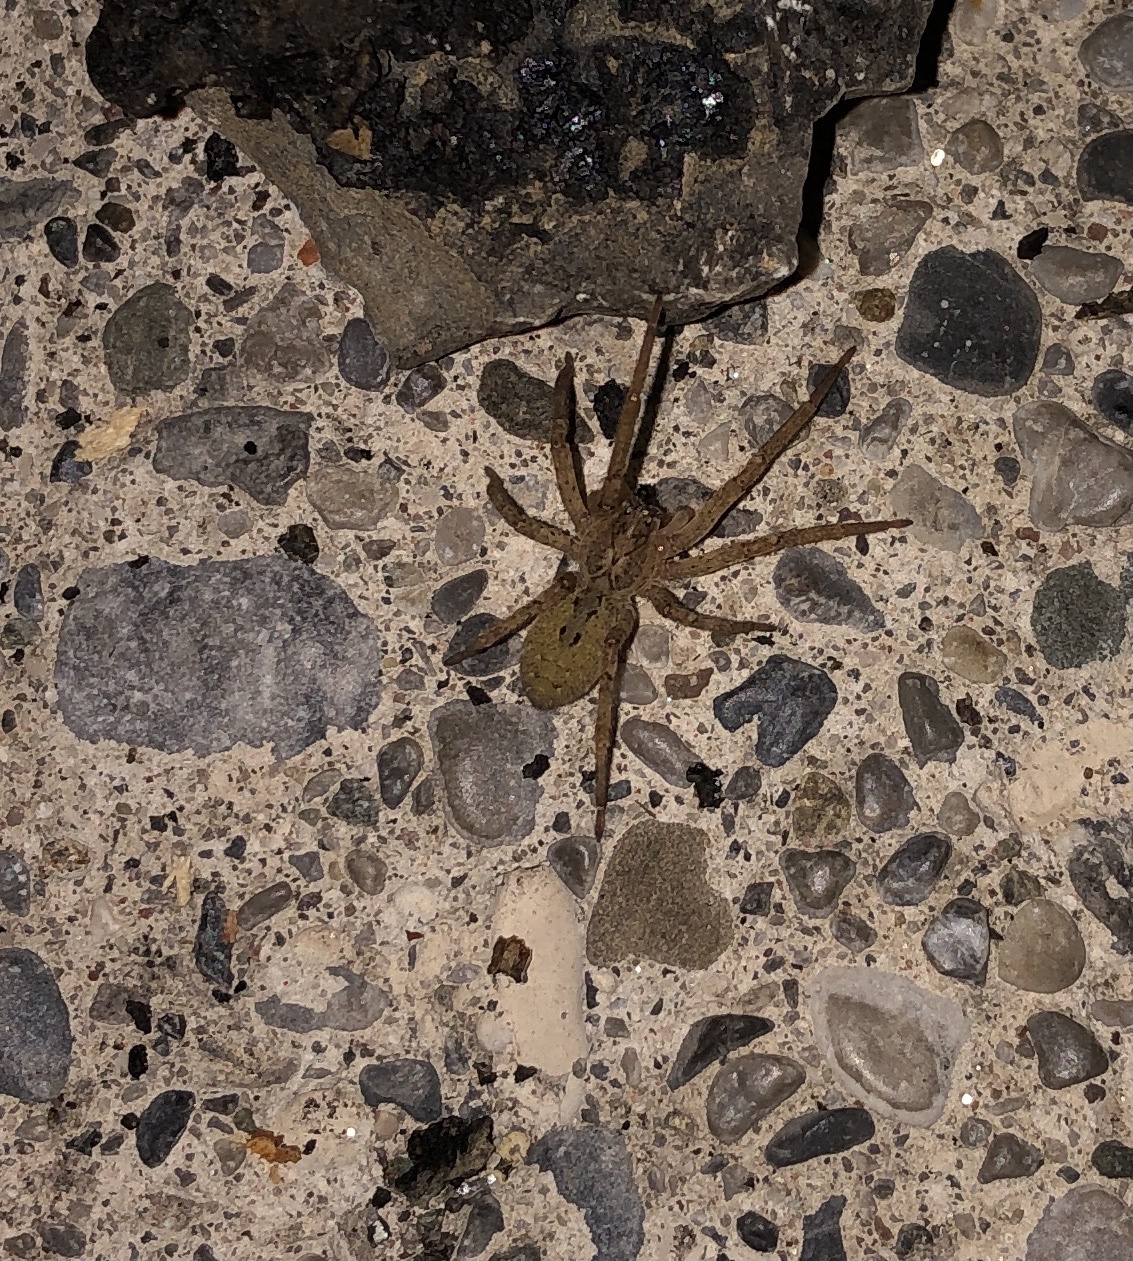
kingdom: Animalia
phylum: Arthropoda
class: Arachnida
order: Araneae
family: Zoropsidae
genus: Zoropsis
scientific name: Zoropsis spinimana
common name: Zoropsid spider
